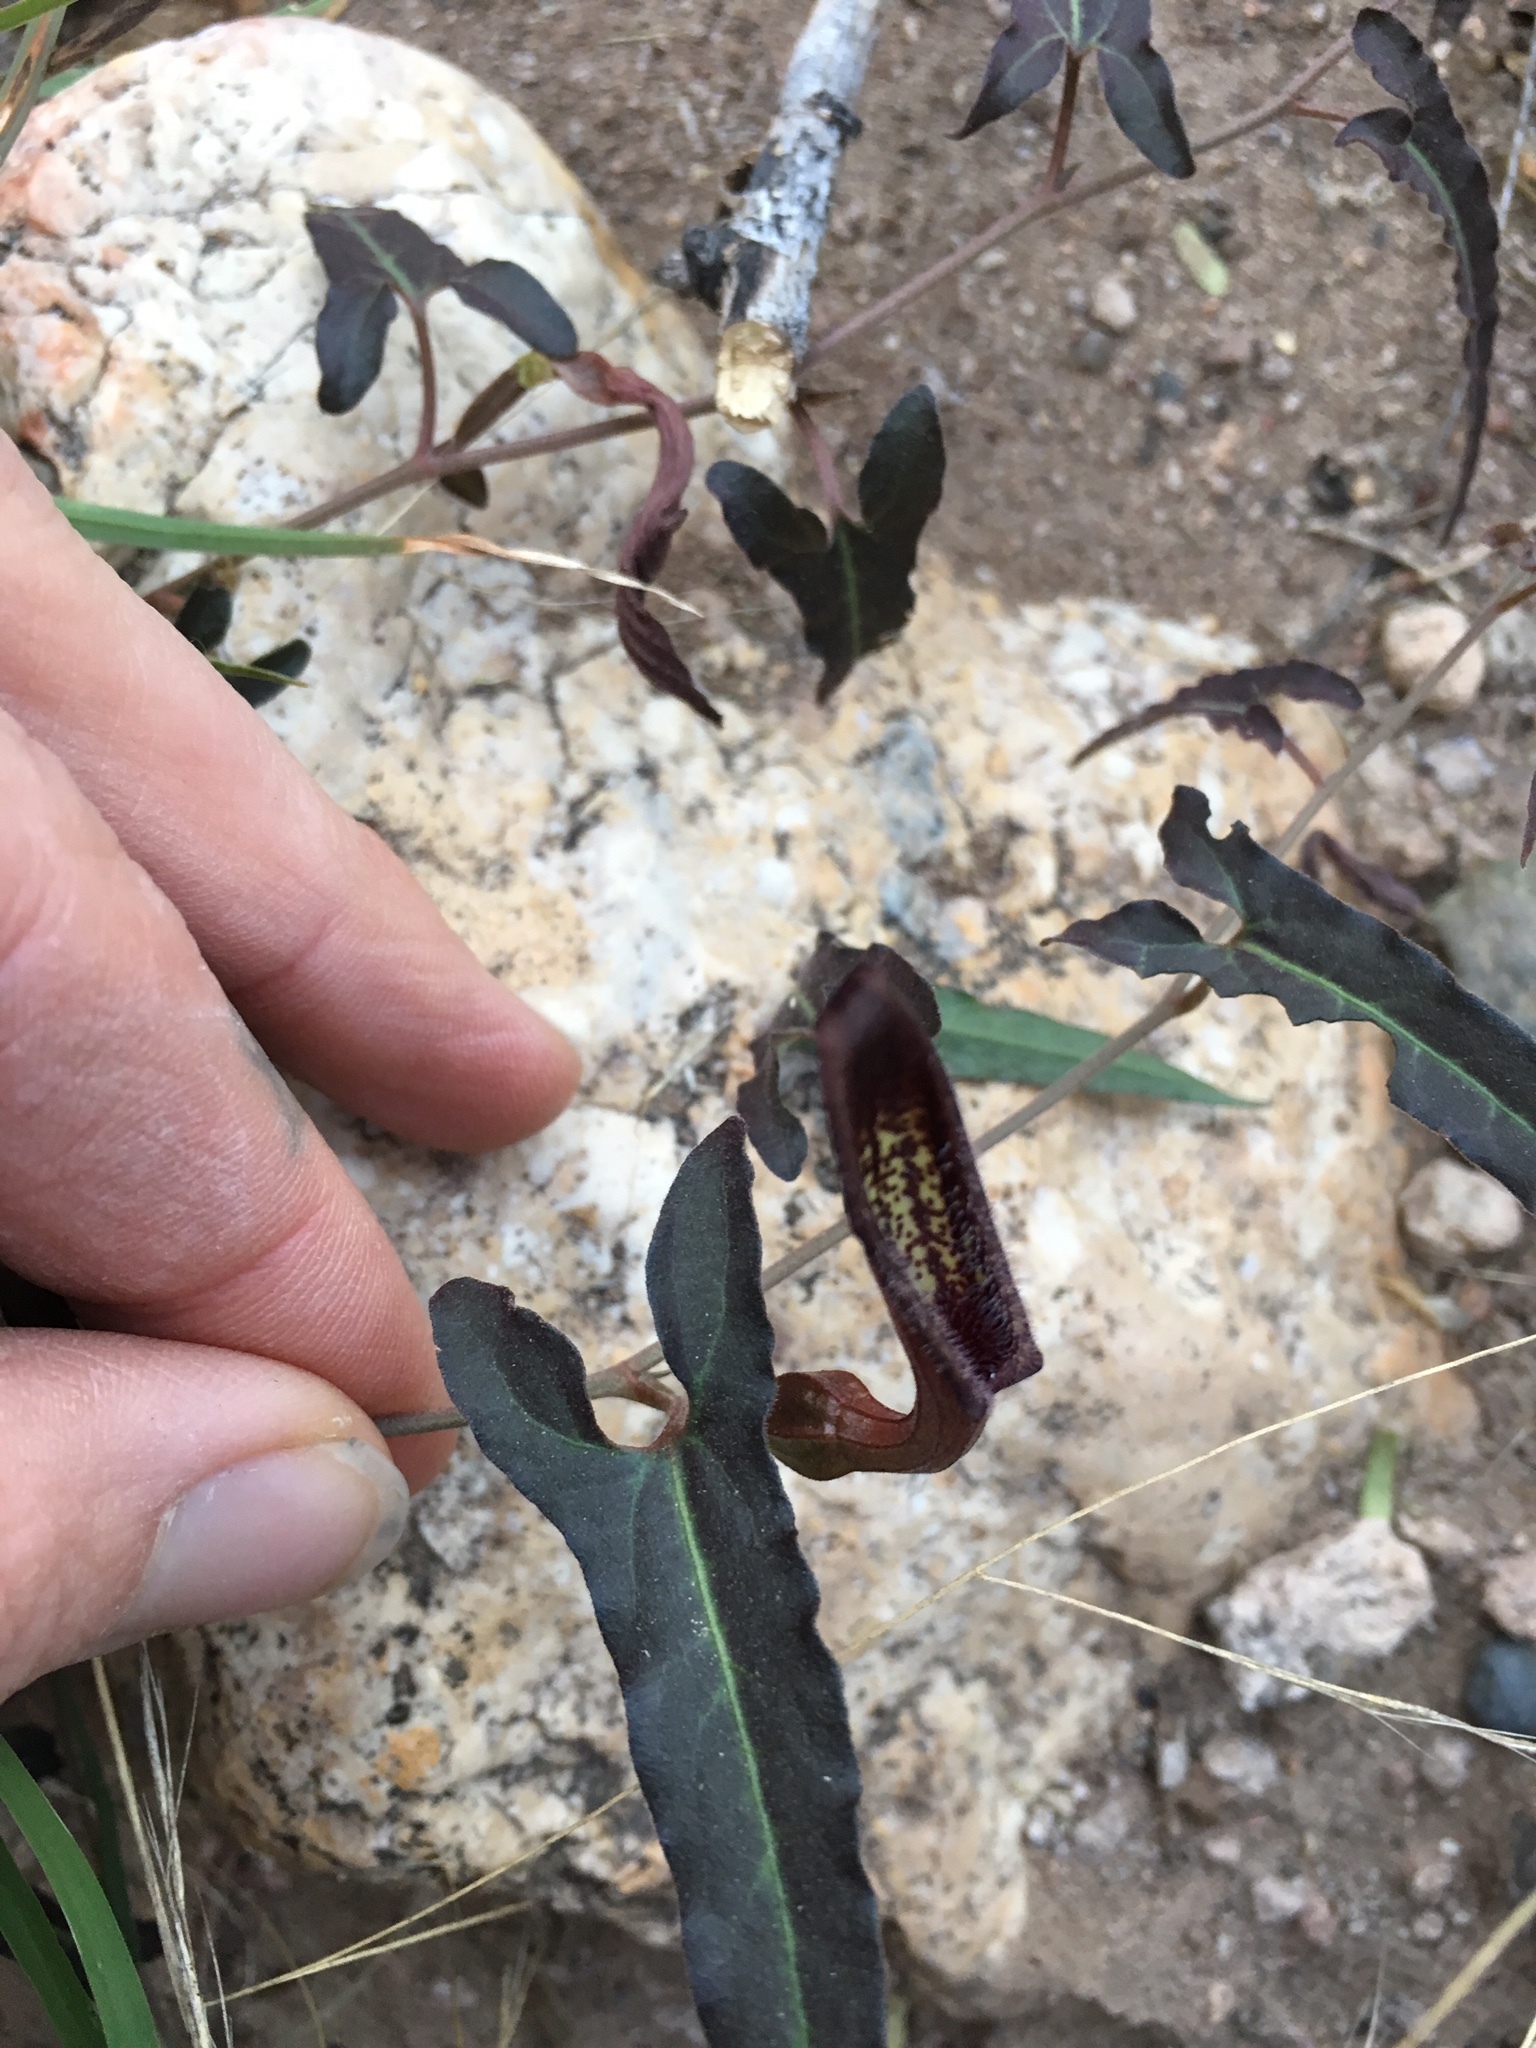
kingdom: Plantae
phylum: Tracheophyta
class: Magnoliopsida
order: Piperales
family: Aristolochiaceae
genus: Aristolochia
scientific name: Aristolochia watsonii
